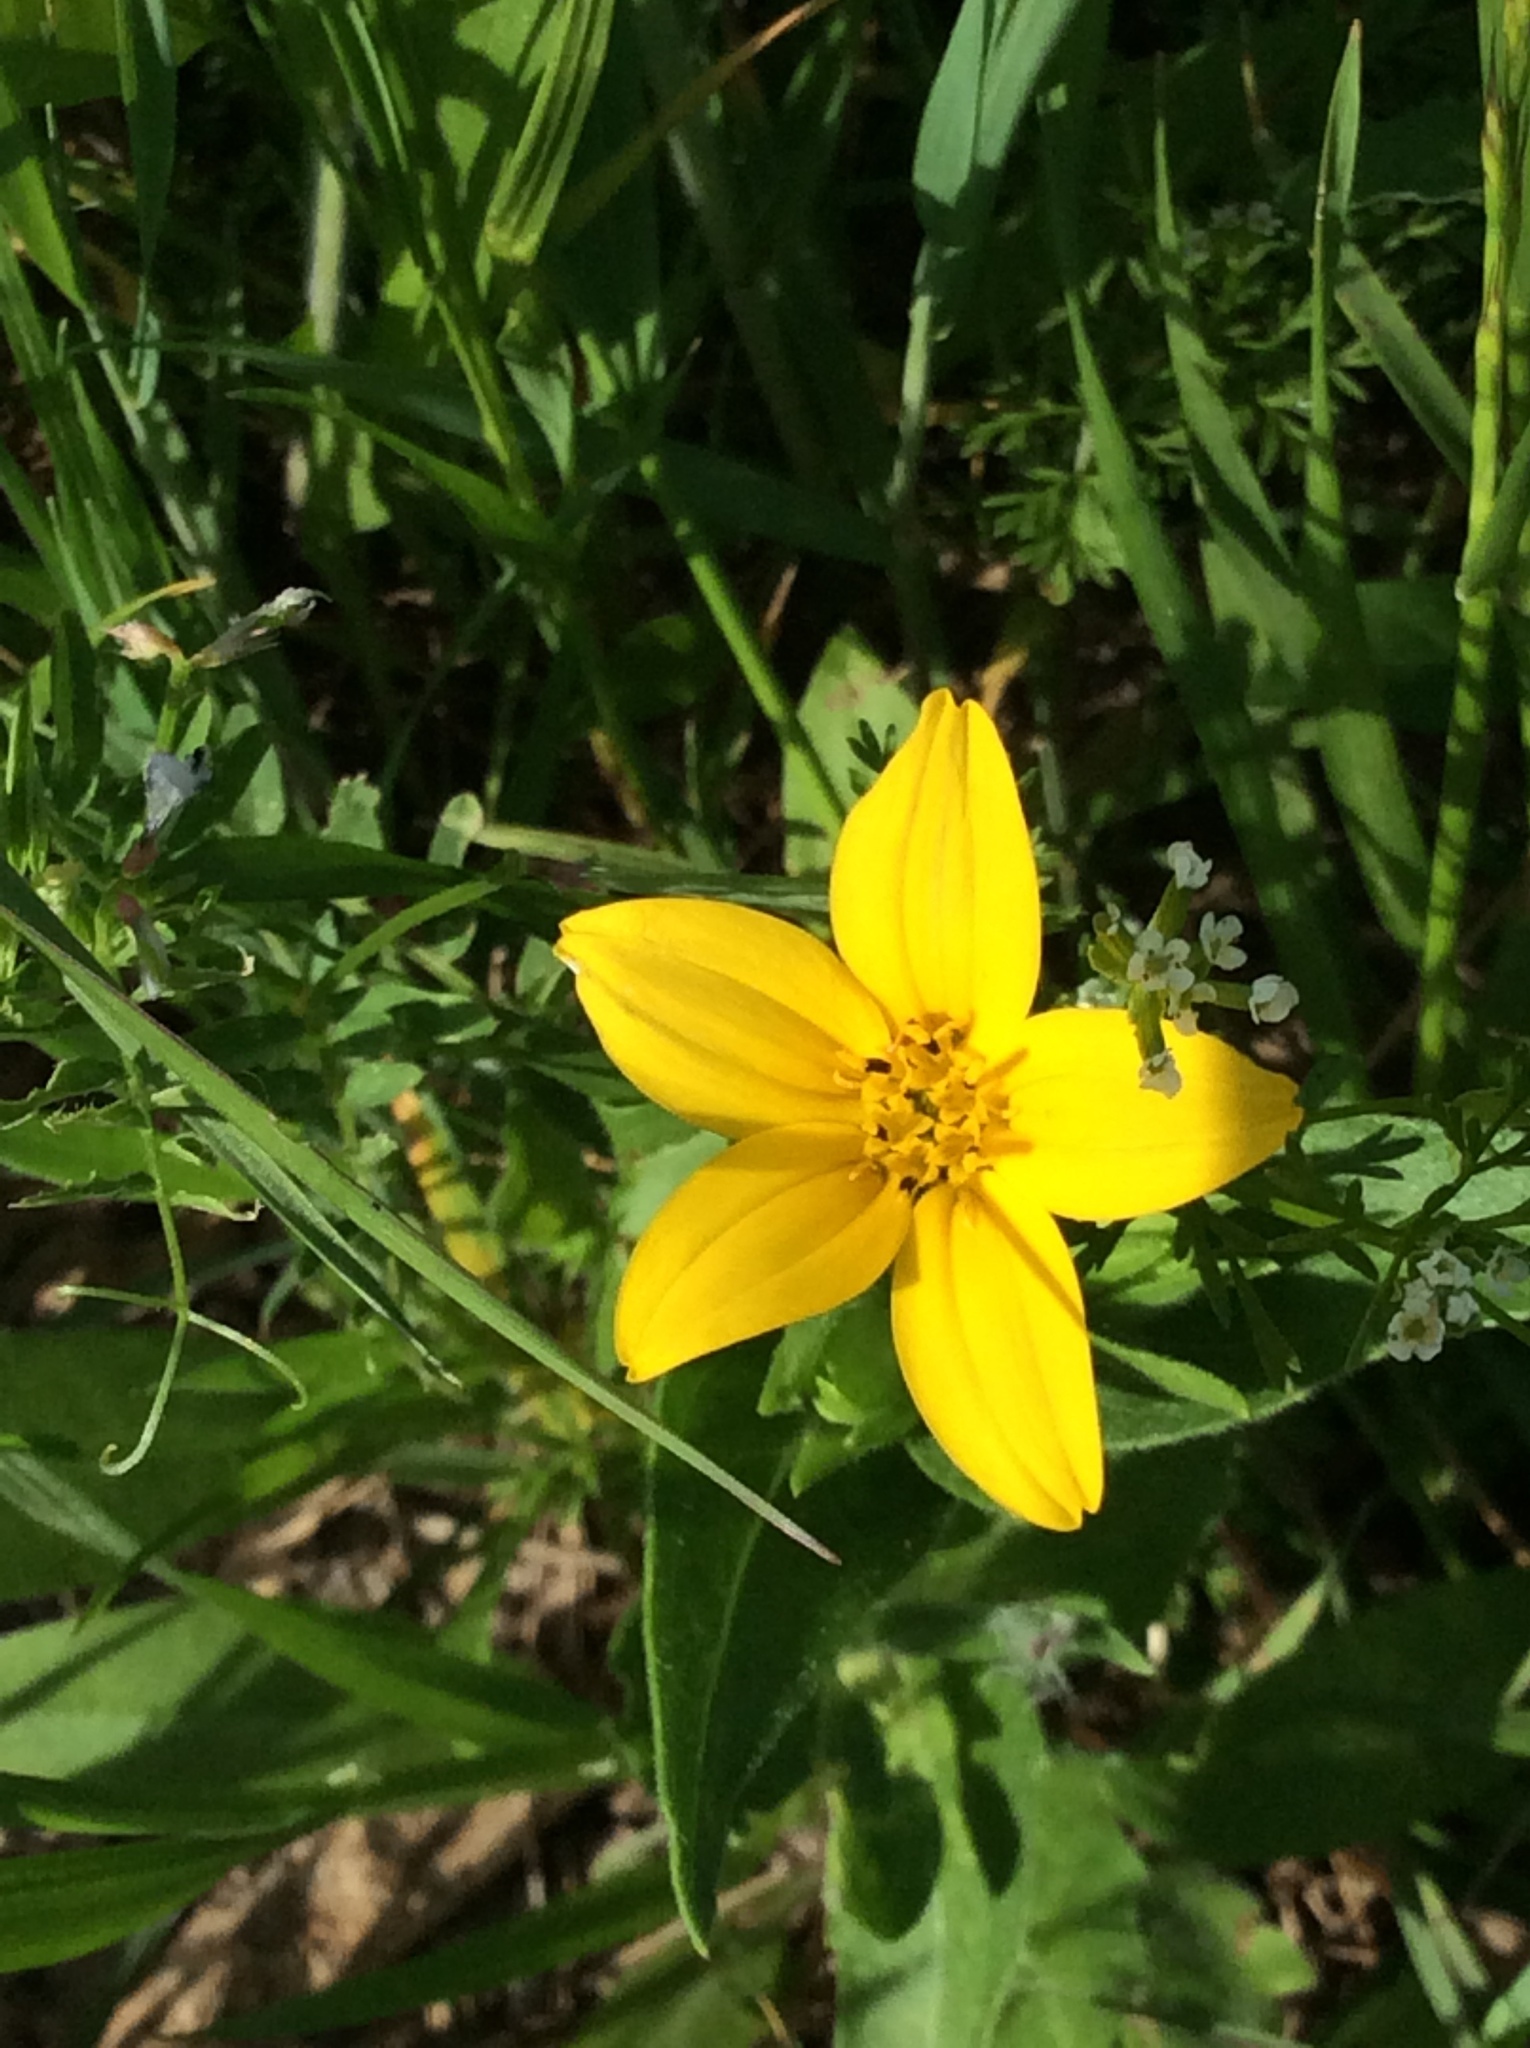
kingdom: Plantae
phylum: Tracheophyta
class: Magnoliopsida
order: Asterales
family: Asteraceae
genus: Lindheimera
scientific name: Lindheimera texana
